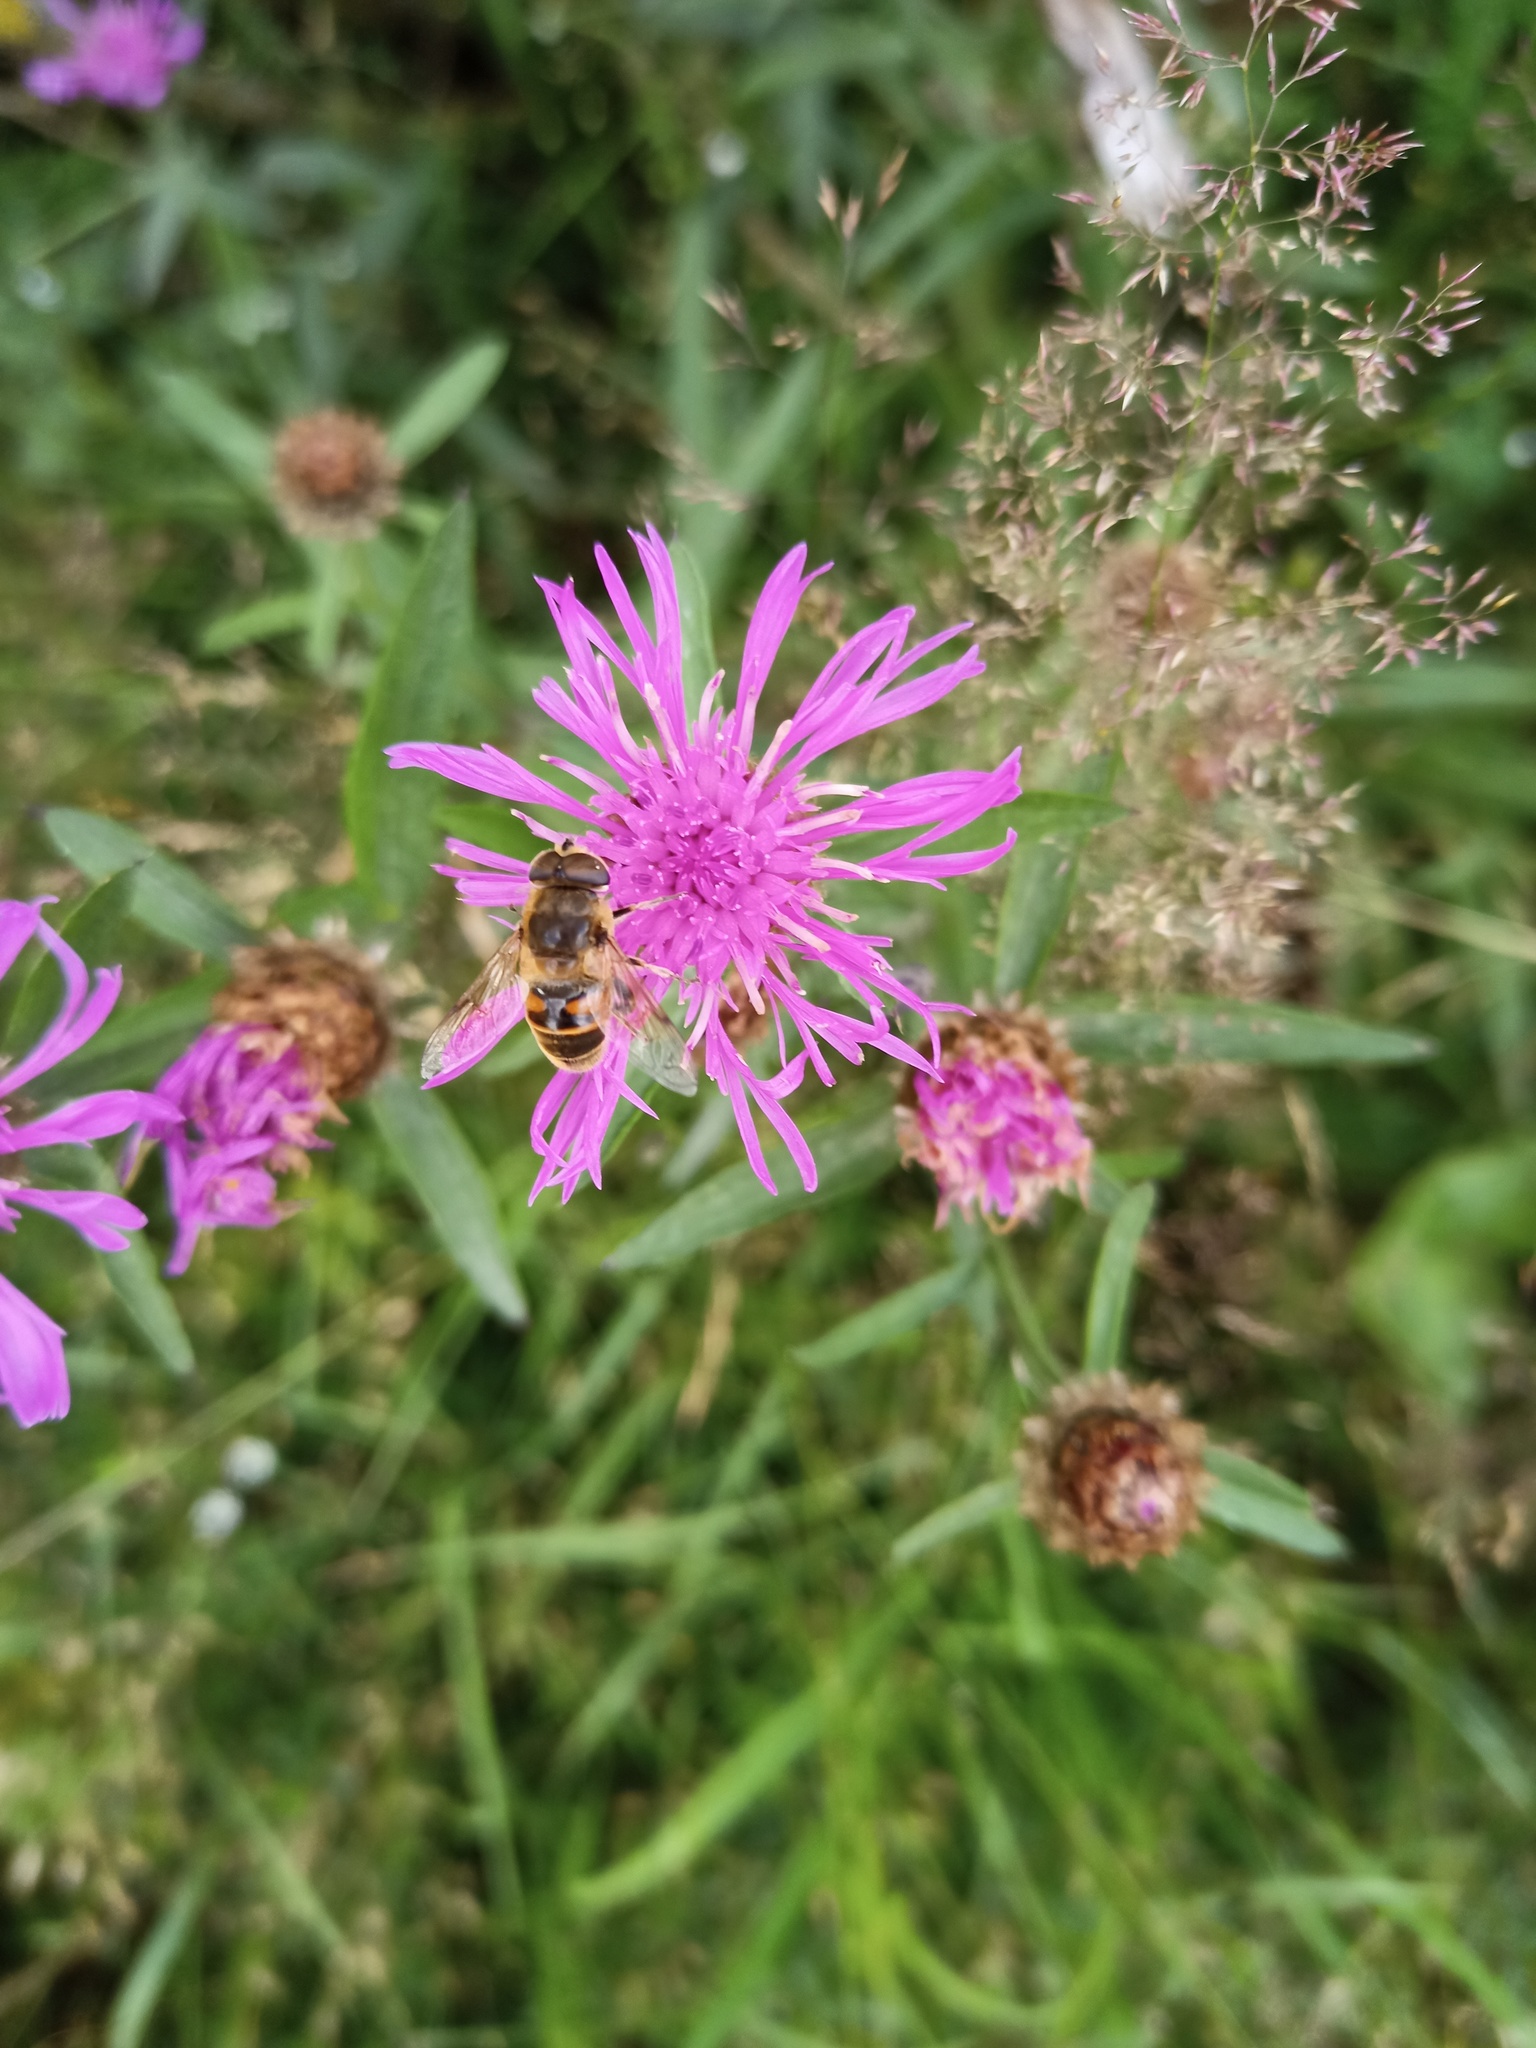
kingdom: Animalia
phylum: Arthropoda
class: Insecta
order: Diptera
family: Syrphidae
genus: Eristalis
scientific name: Eristalis tenax
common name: Drone fly
